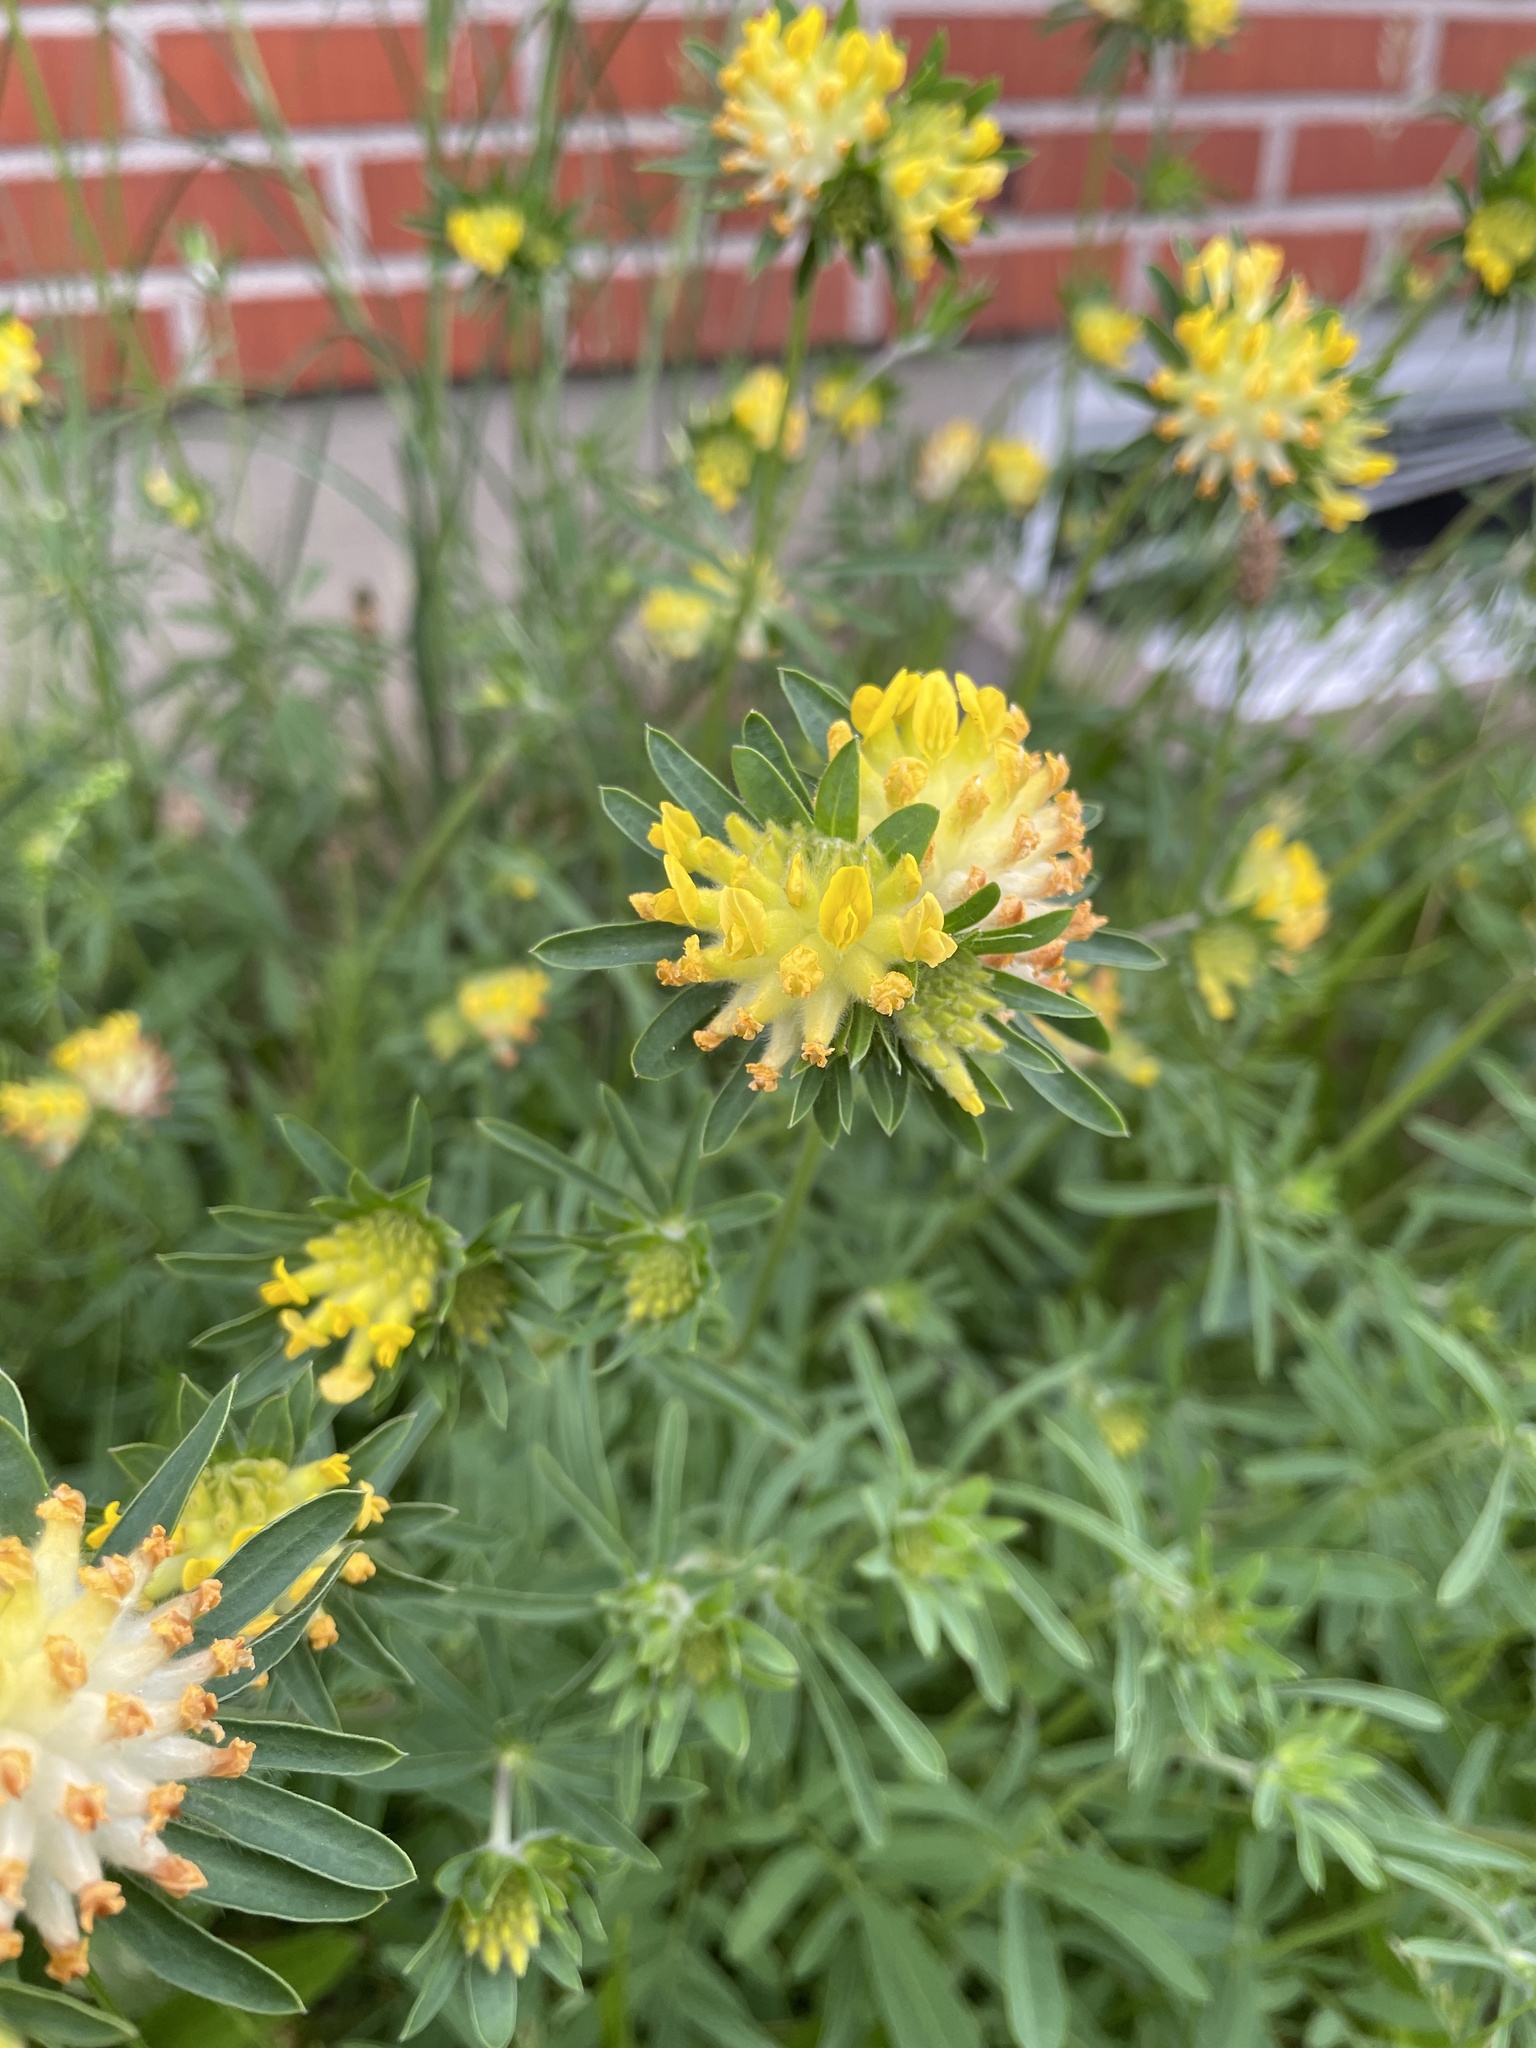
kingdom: Plantae
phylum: Tracheophyta
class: Magnoliopsida
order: Fabales
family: Fabaceae
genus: Anthyllis
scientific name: Anthyllis vulneraria
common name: Kidney vetch
